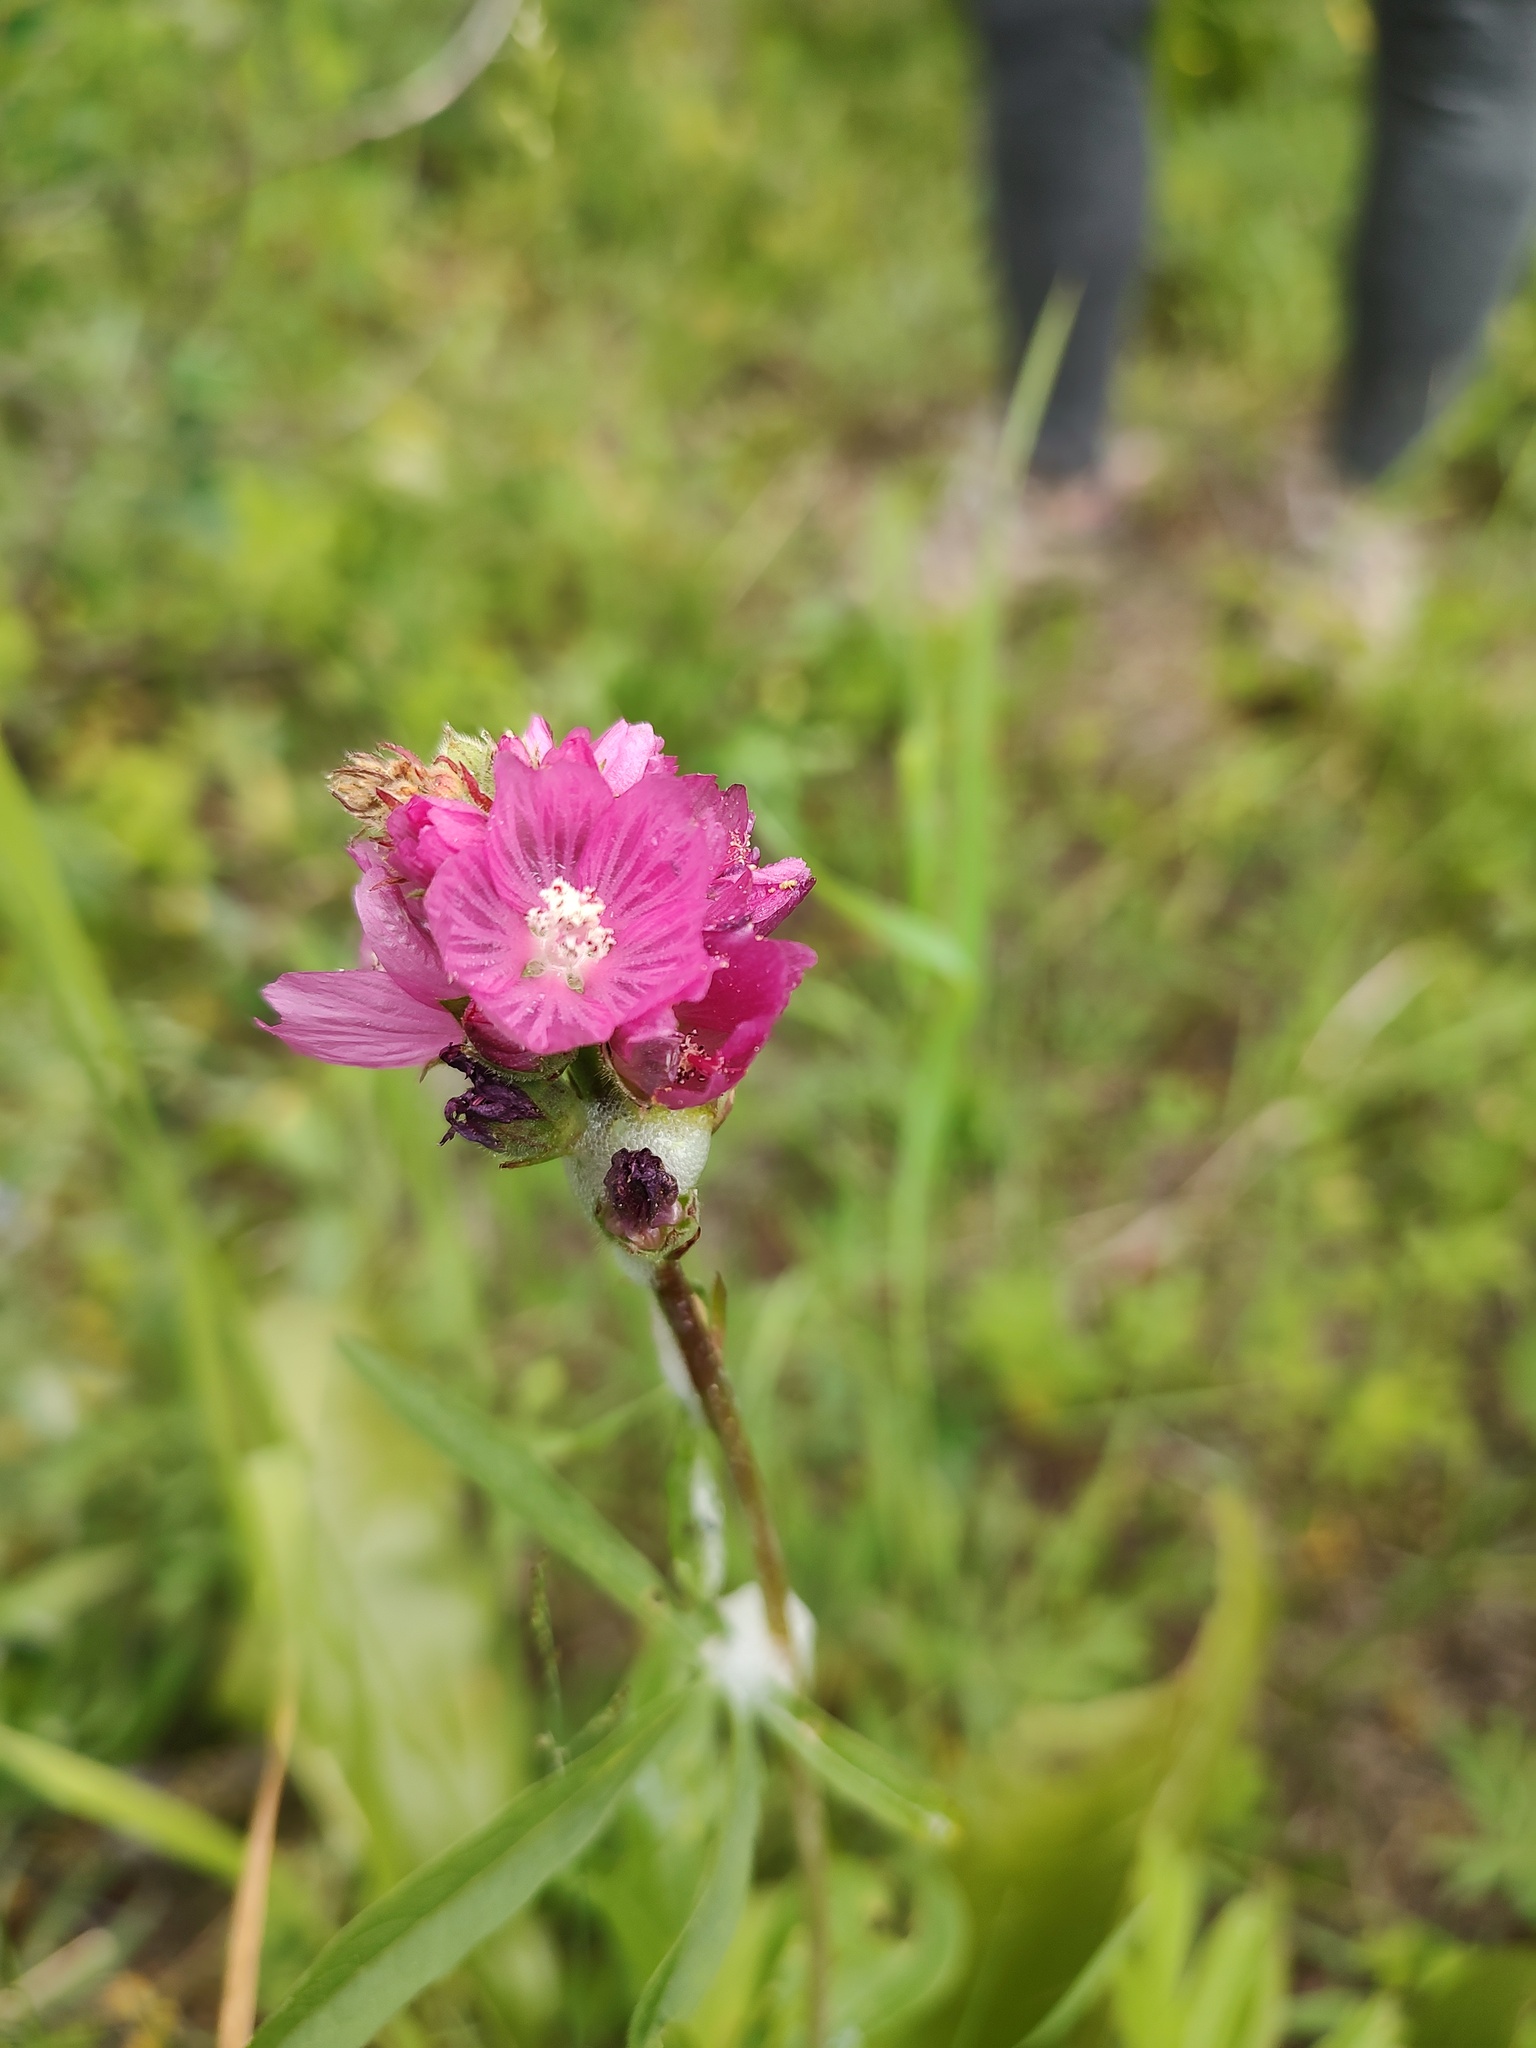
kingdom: Plantae
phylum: Tracheophyta
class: Magnoliopsida
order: Malvales
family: Malvaceae
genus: Sidalcea
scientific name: Sidalcea oregana
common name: Oregon checker-mallow
